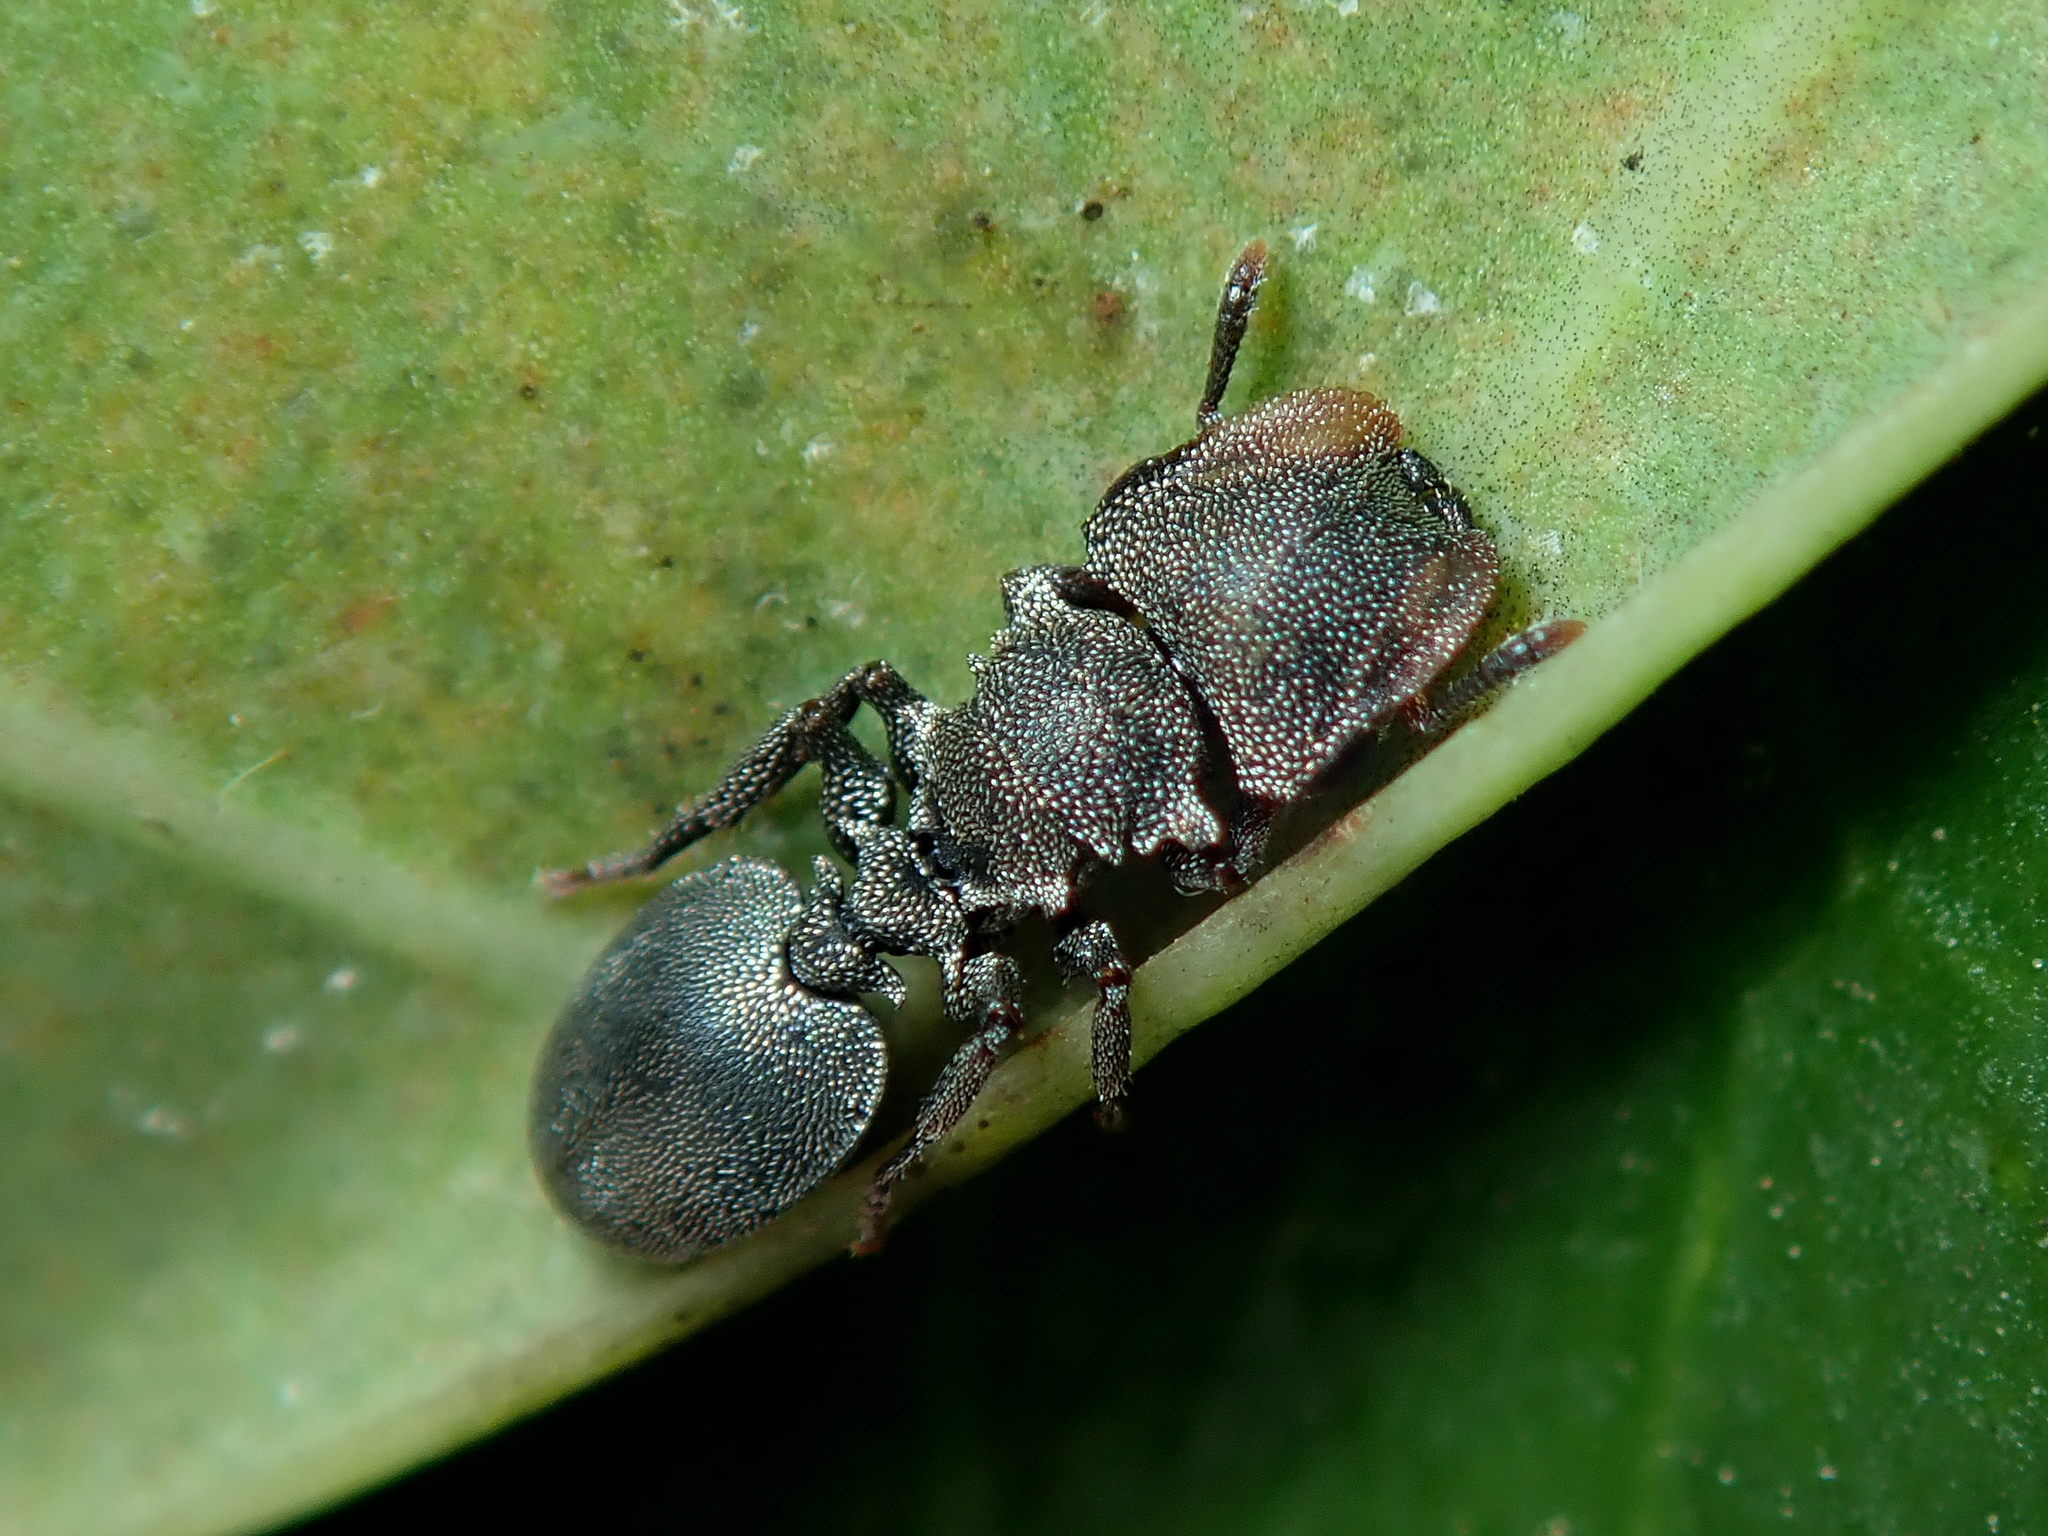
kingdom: Animalia
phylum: Arthropoda
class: Insecta
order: Hymenoptera
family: Formicidae
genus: Cephalotes
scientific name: Cephalotes depressus
